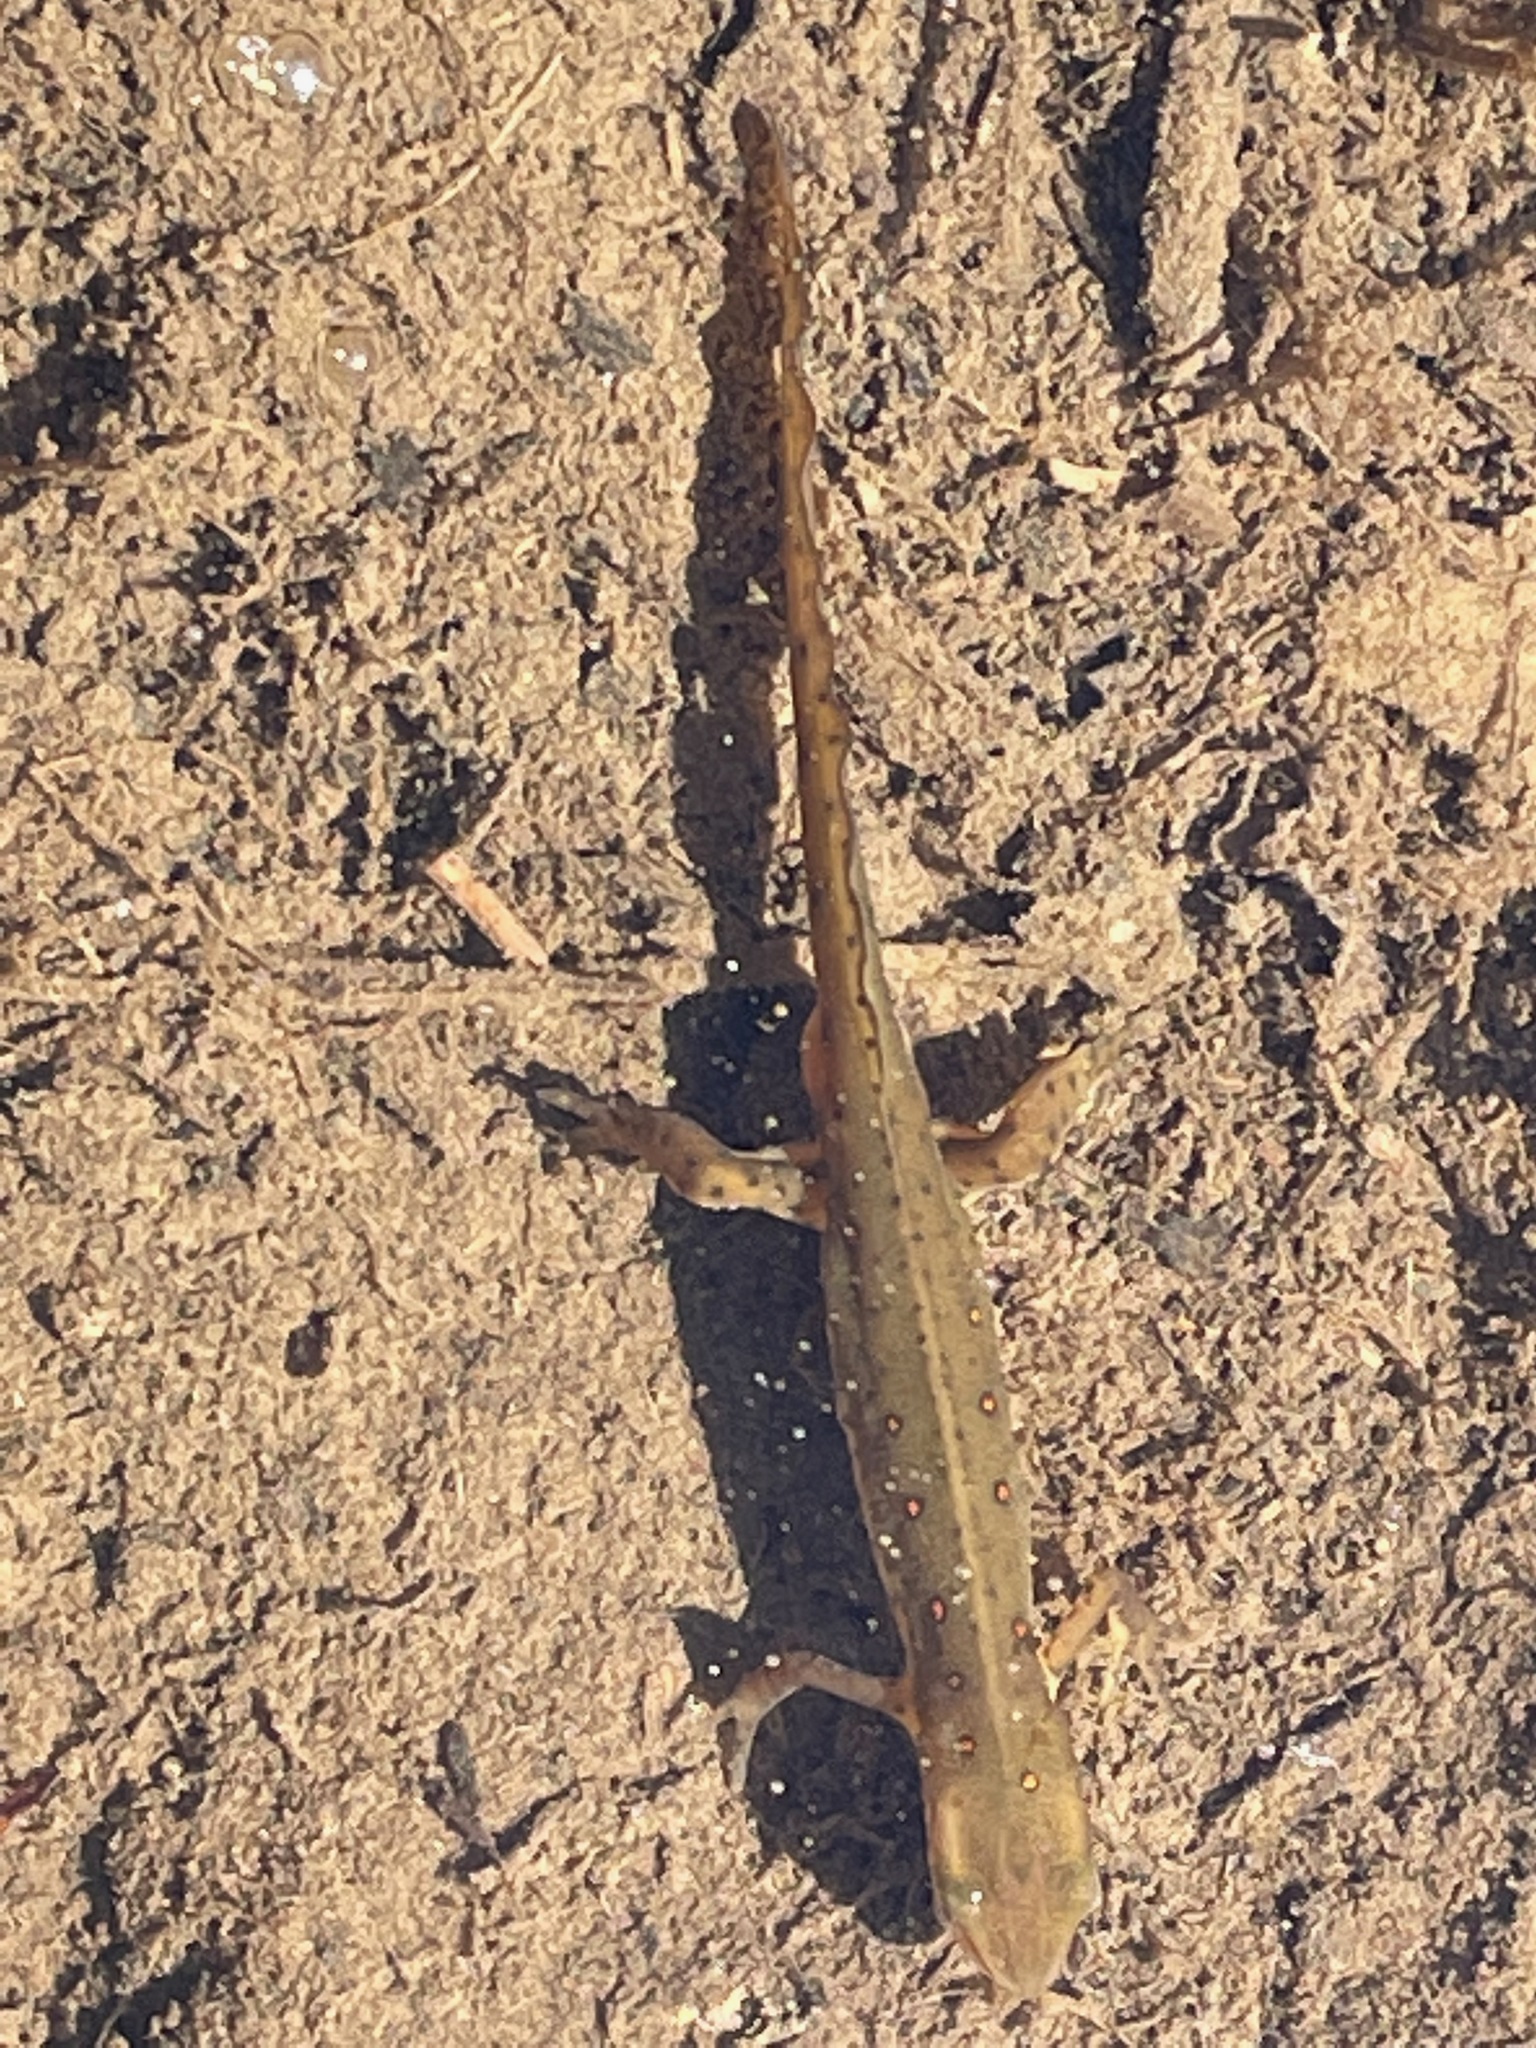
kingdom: Animalia
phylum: Chordata
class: Amphibia
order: Caudata
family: Salamandridae
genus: Notophthalmus
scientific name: Notophthalmus viridescens
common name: Eastern newt
